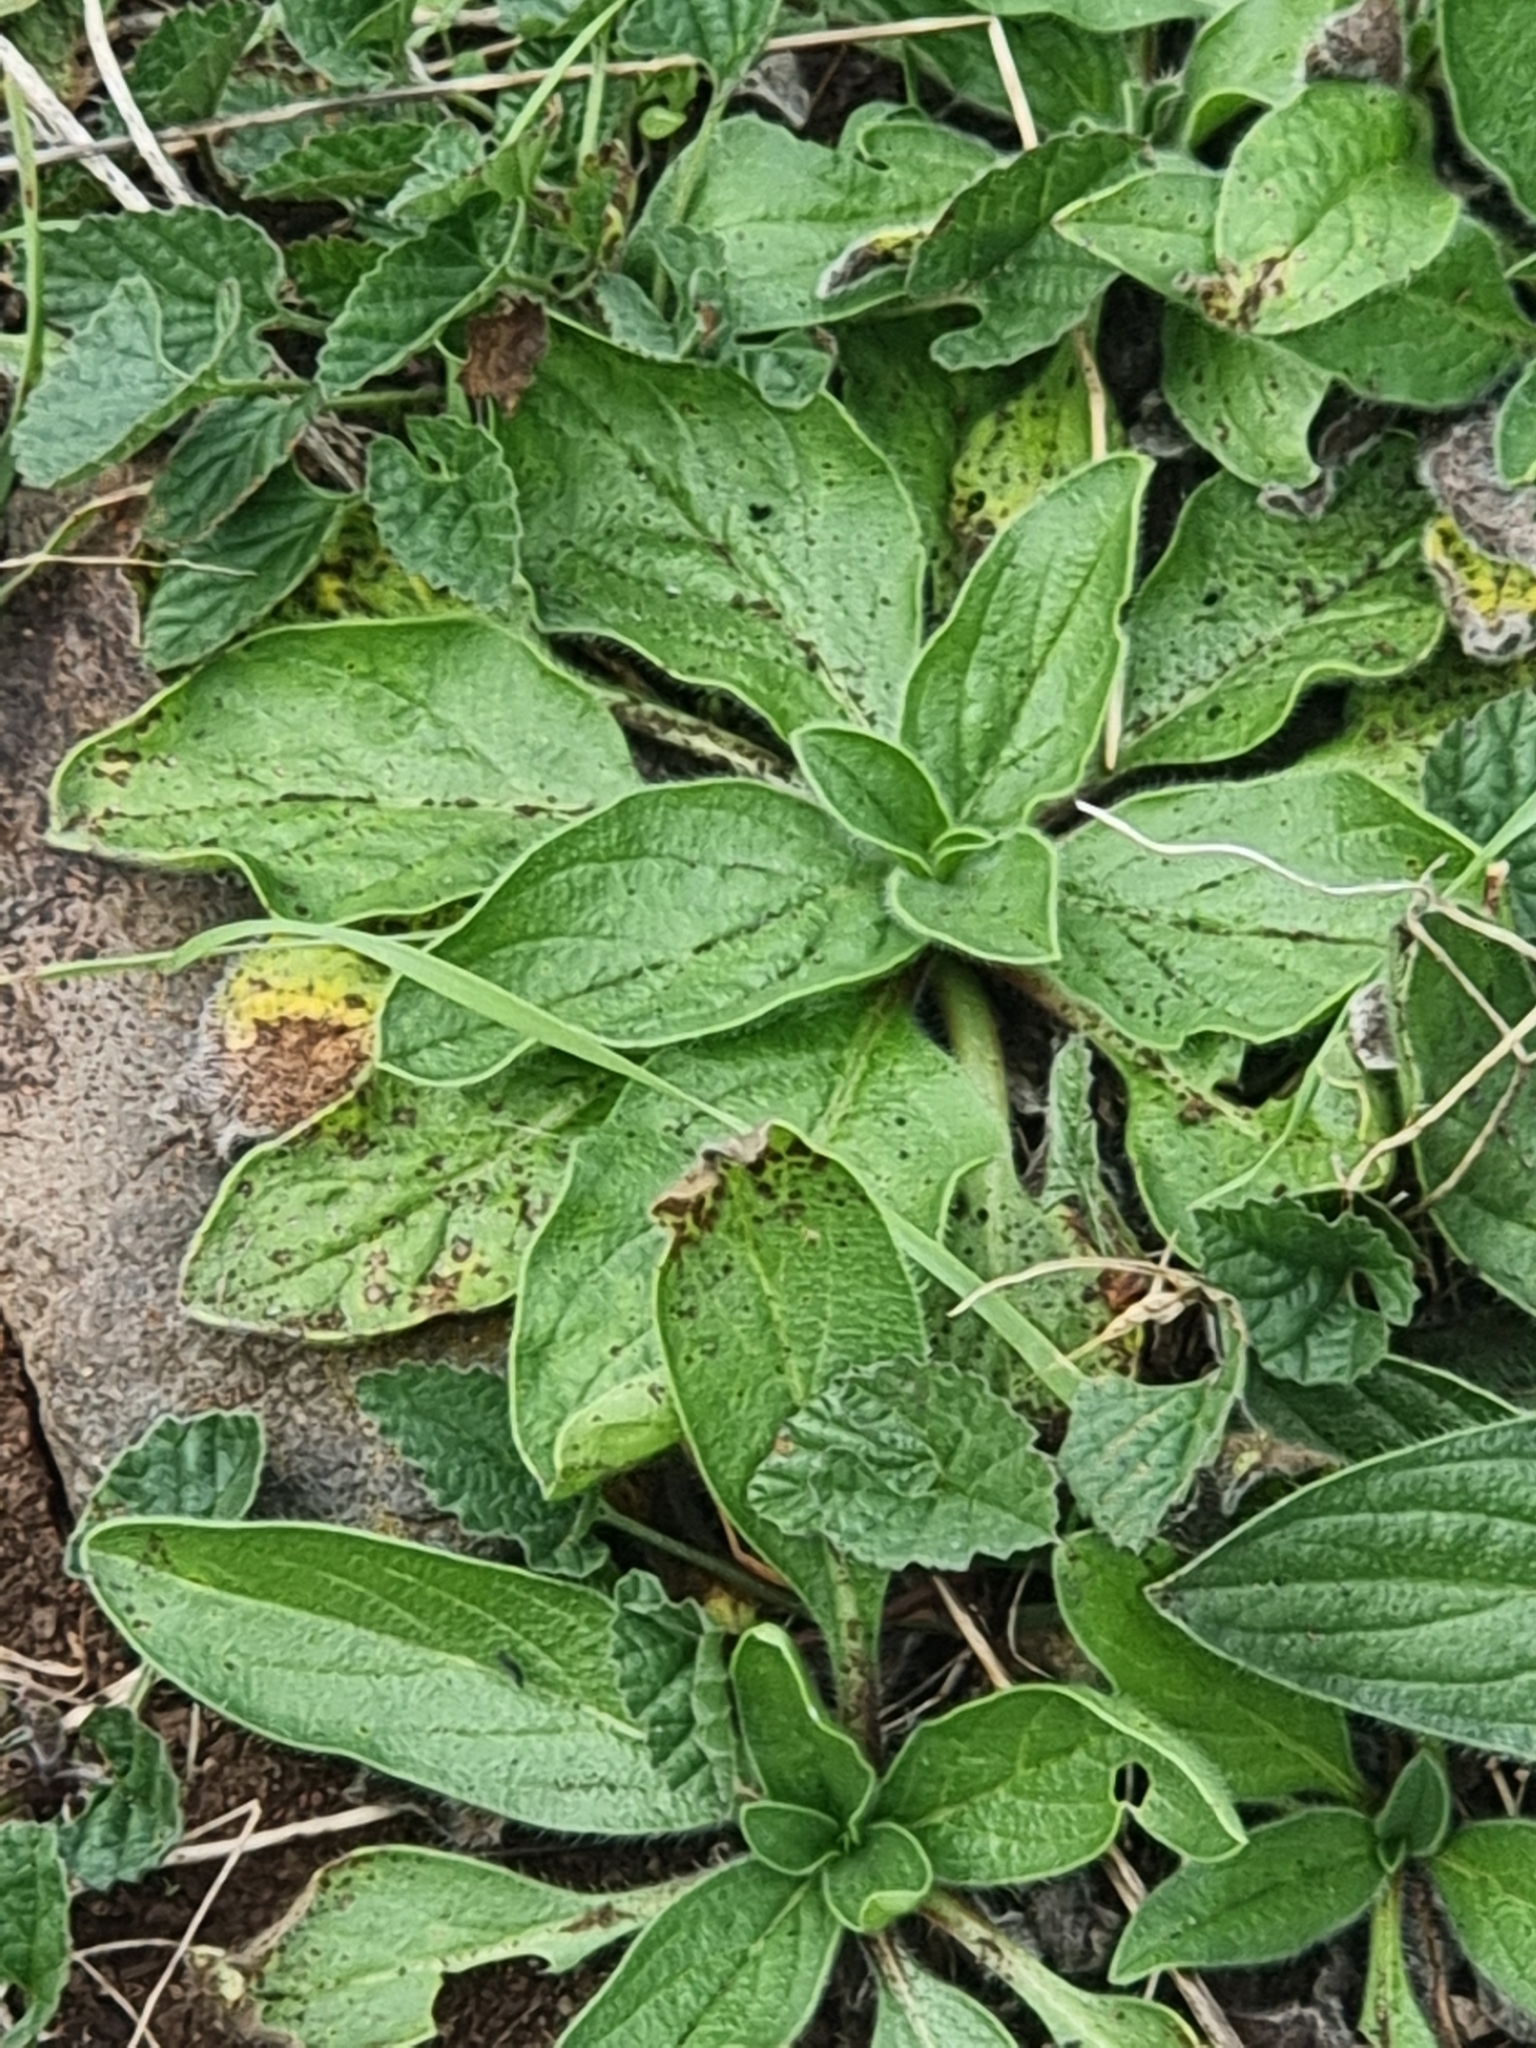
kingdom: Plantae
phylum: Tracheophyta
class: Magnoliopsida
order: Boraginales
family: Boraginaceae
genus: Echium
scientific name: Echium plantagineum
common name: Purple viper's-bugloss
